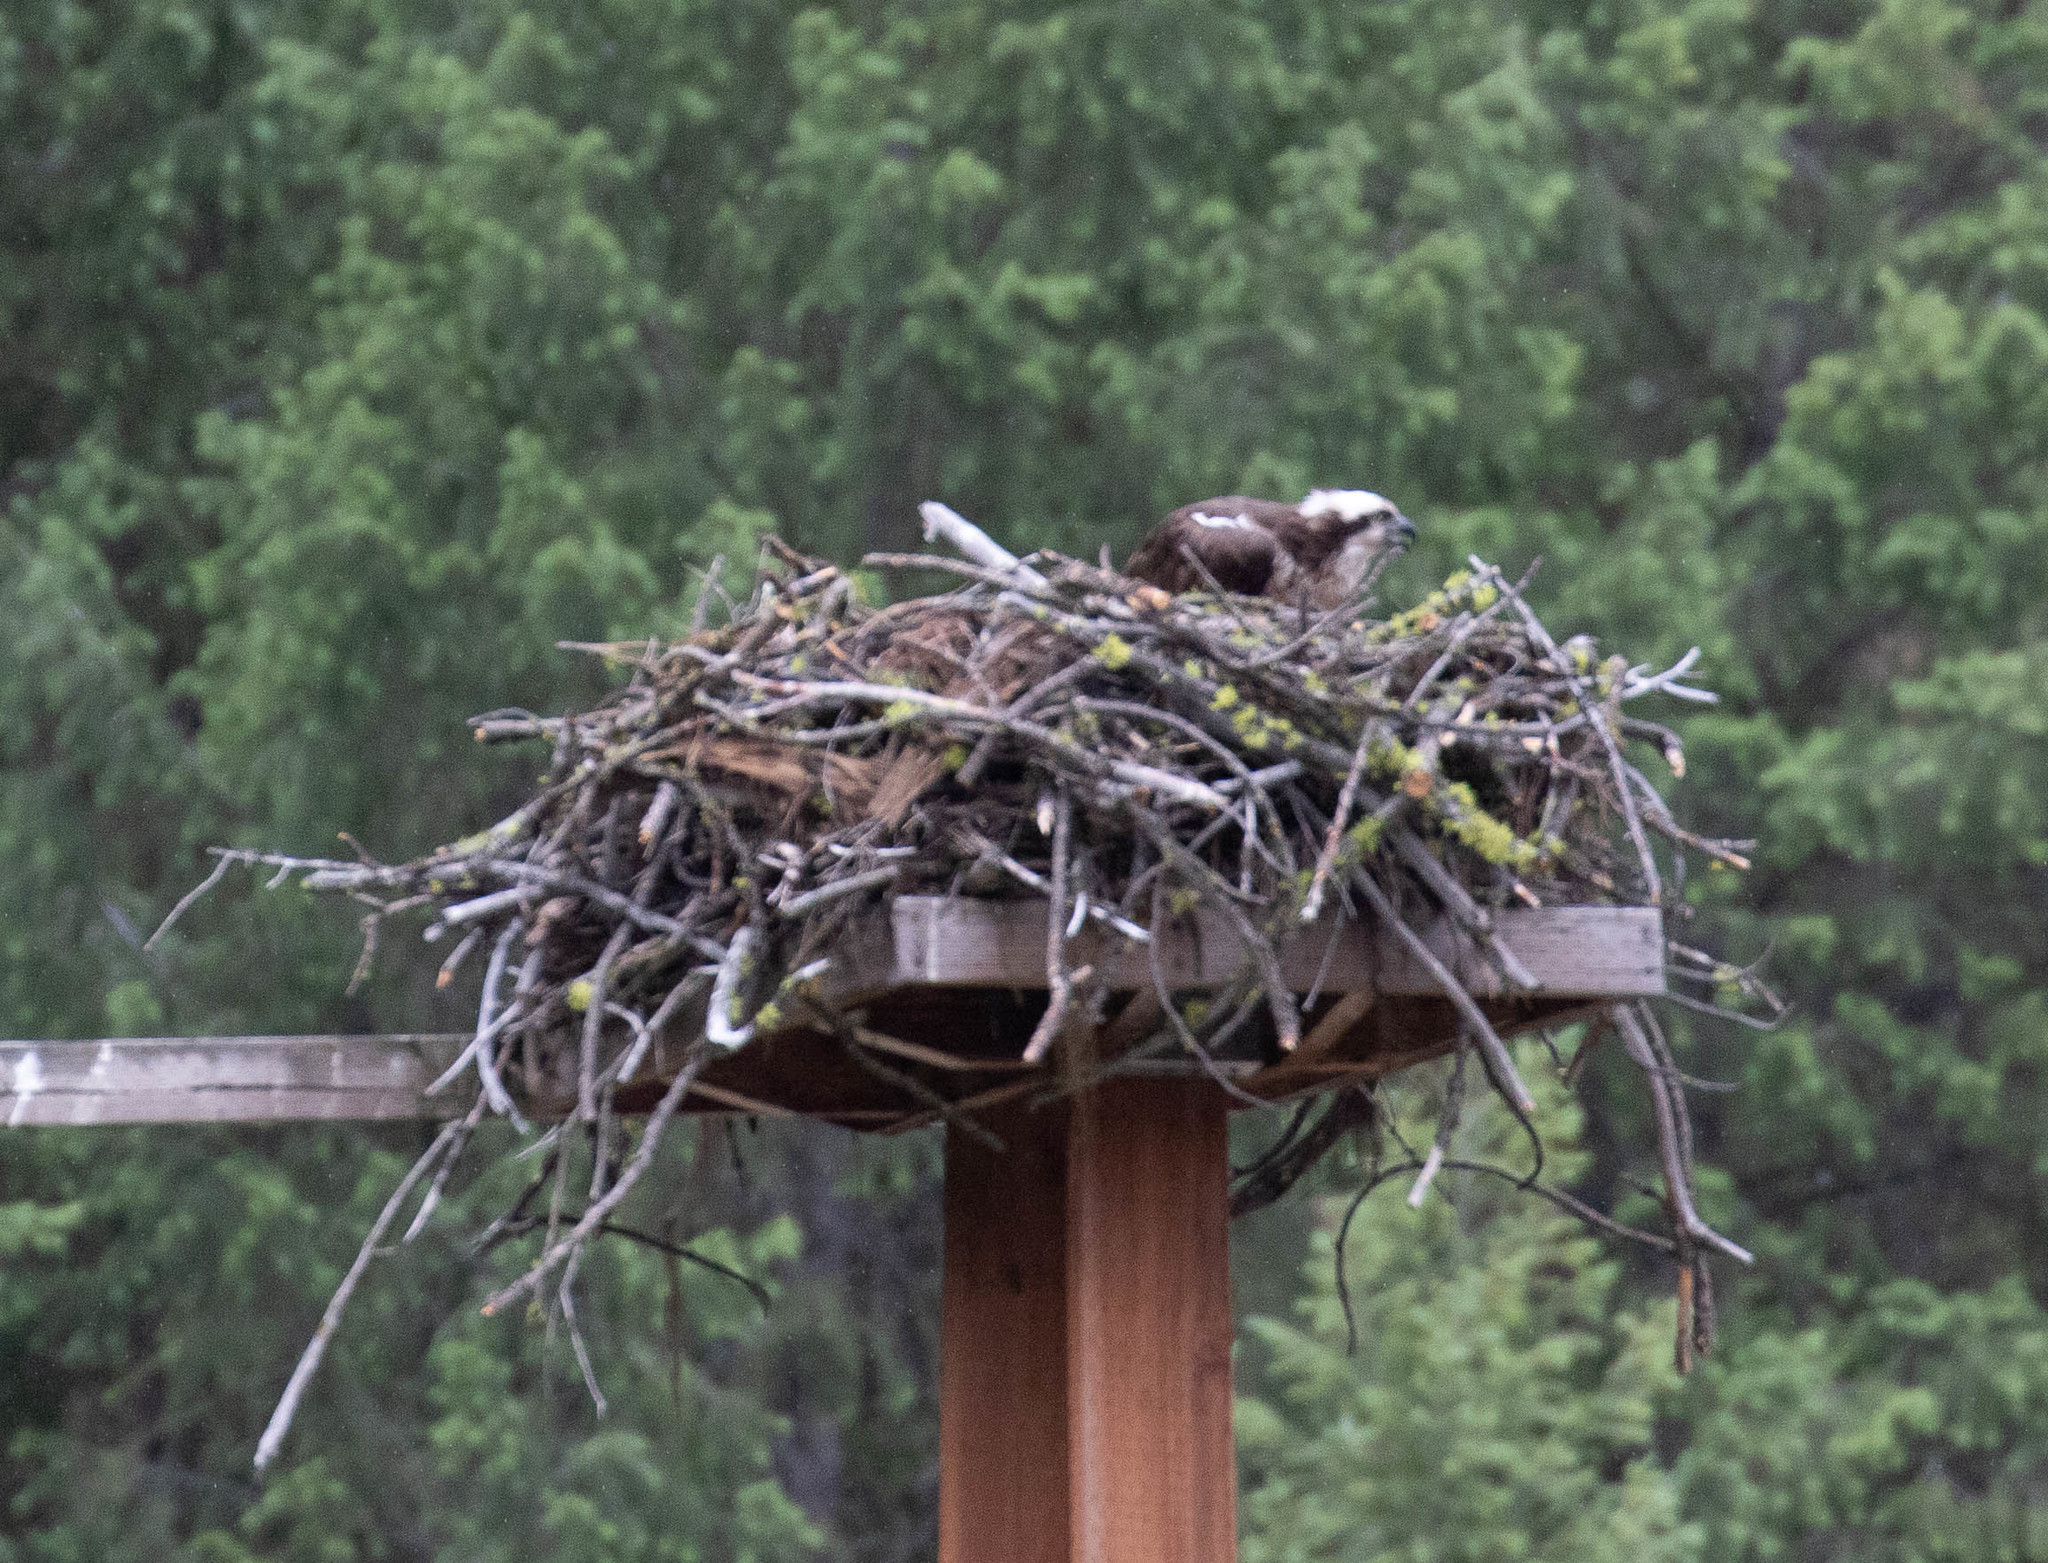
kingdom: Animalia
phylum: Chordata
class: Aves
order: Accipitriformes
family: Pandionidae
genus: Pandion
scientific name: Pandion haliaetus
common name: Osprey
